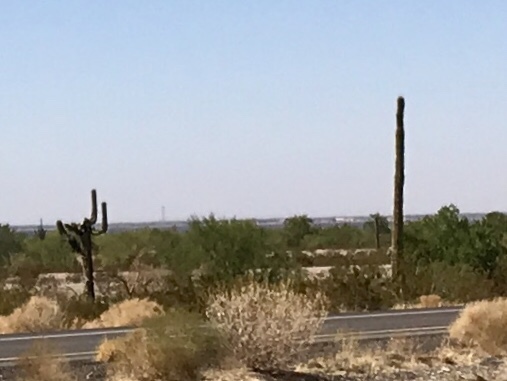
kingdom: Plantae
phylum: Tracheophyta
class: Magnoliopsida
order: Caryophyllales
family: Cactaceae
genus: Carnegiea
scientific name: Carnegiea gigantea
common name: Saguaro
